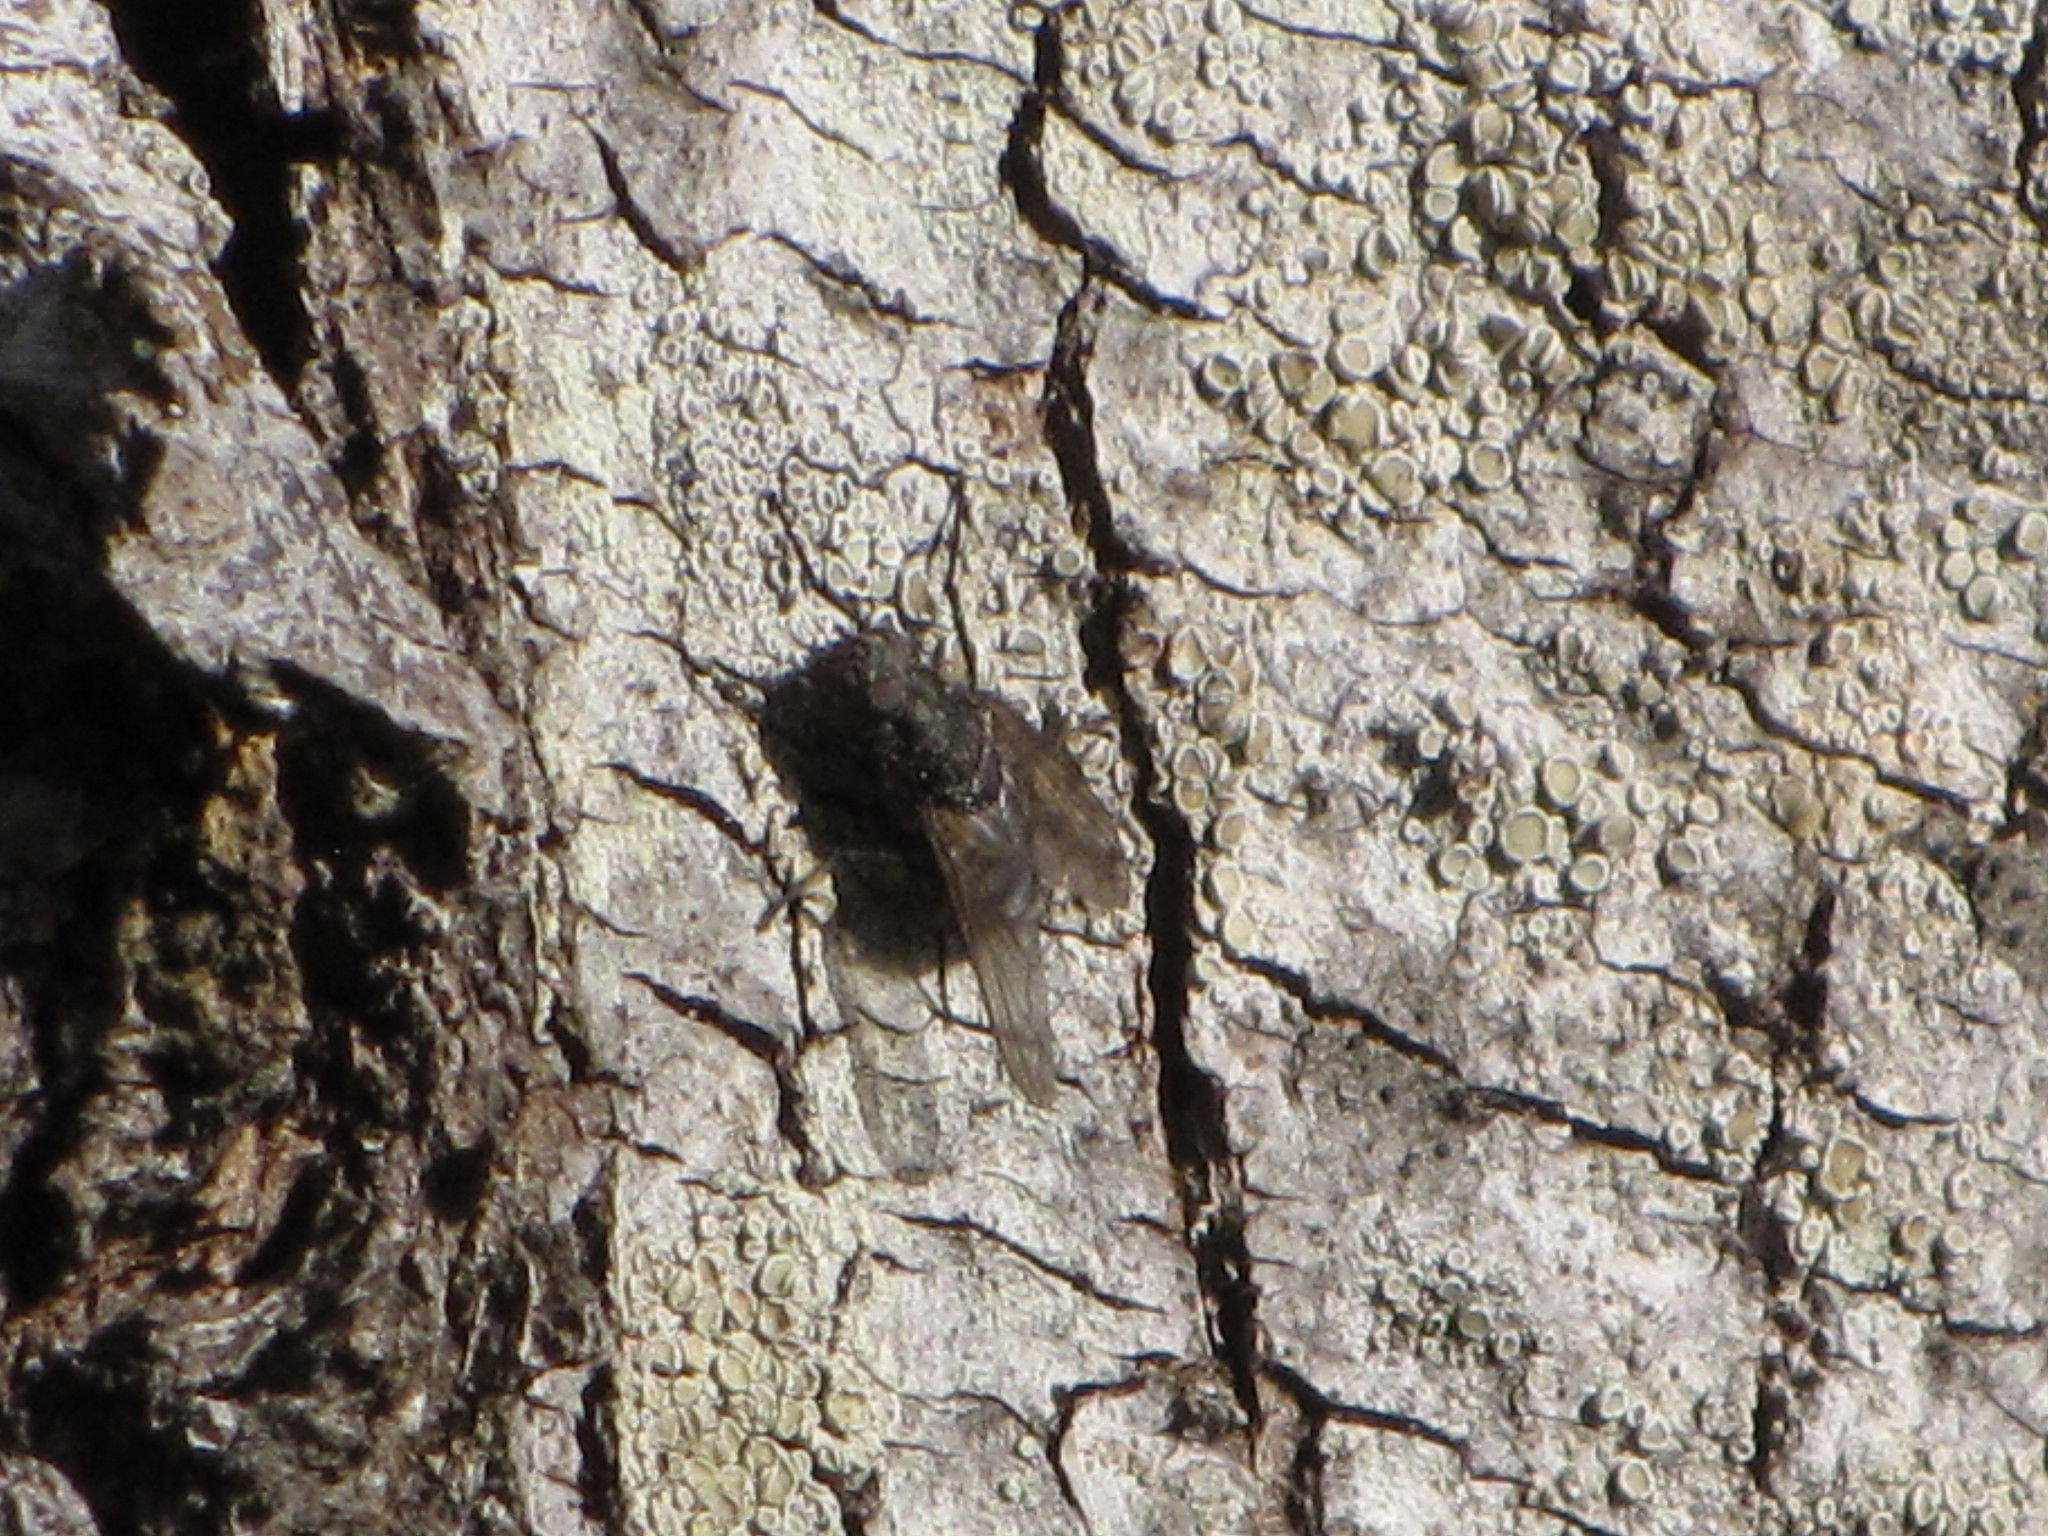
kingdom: Animalia
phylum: Arthropoda
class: Insecta
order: Diptera
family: Polleniidae
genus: Pollenia
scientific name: Pollenia vagabunda
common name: Vagabund cluster fly
